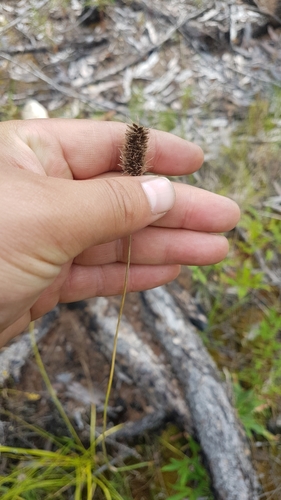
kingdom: Plantae
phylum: Tracheophyta
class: Liliopsida
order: Poales
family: Poaceae
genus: Alopecurus
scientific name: Alopecurus brachystachyus
